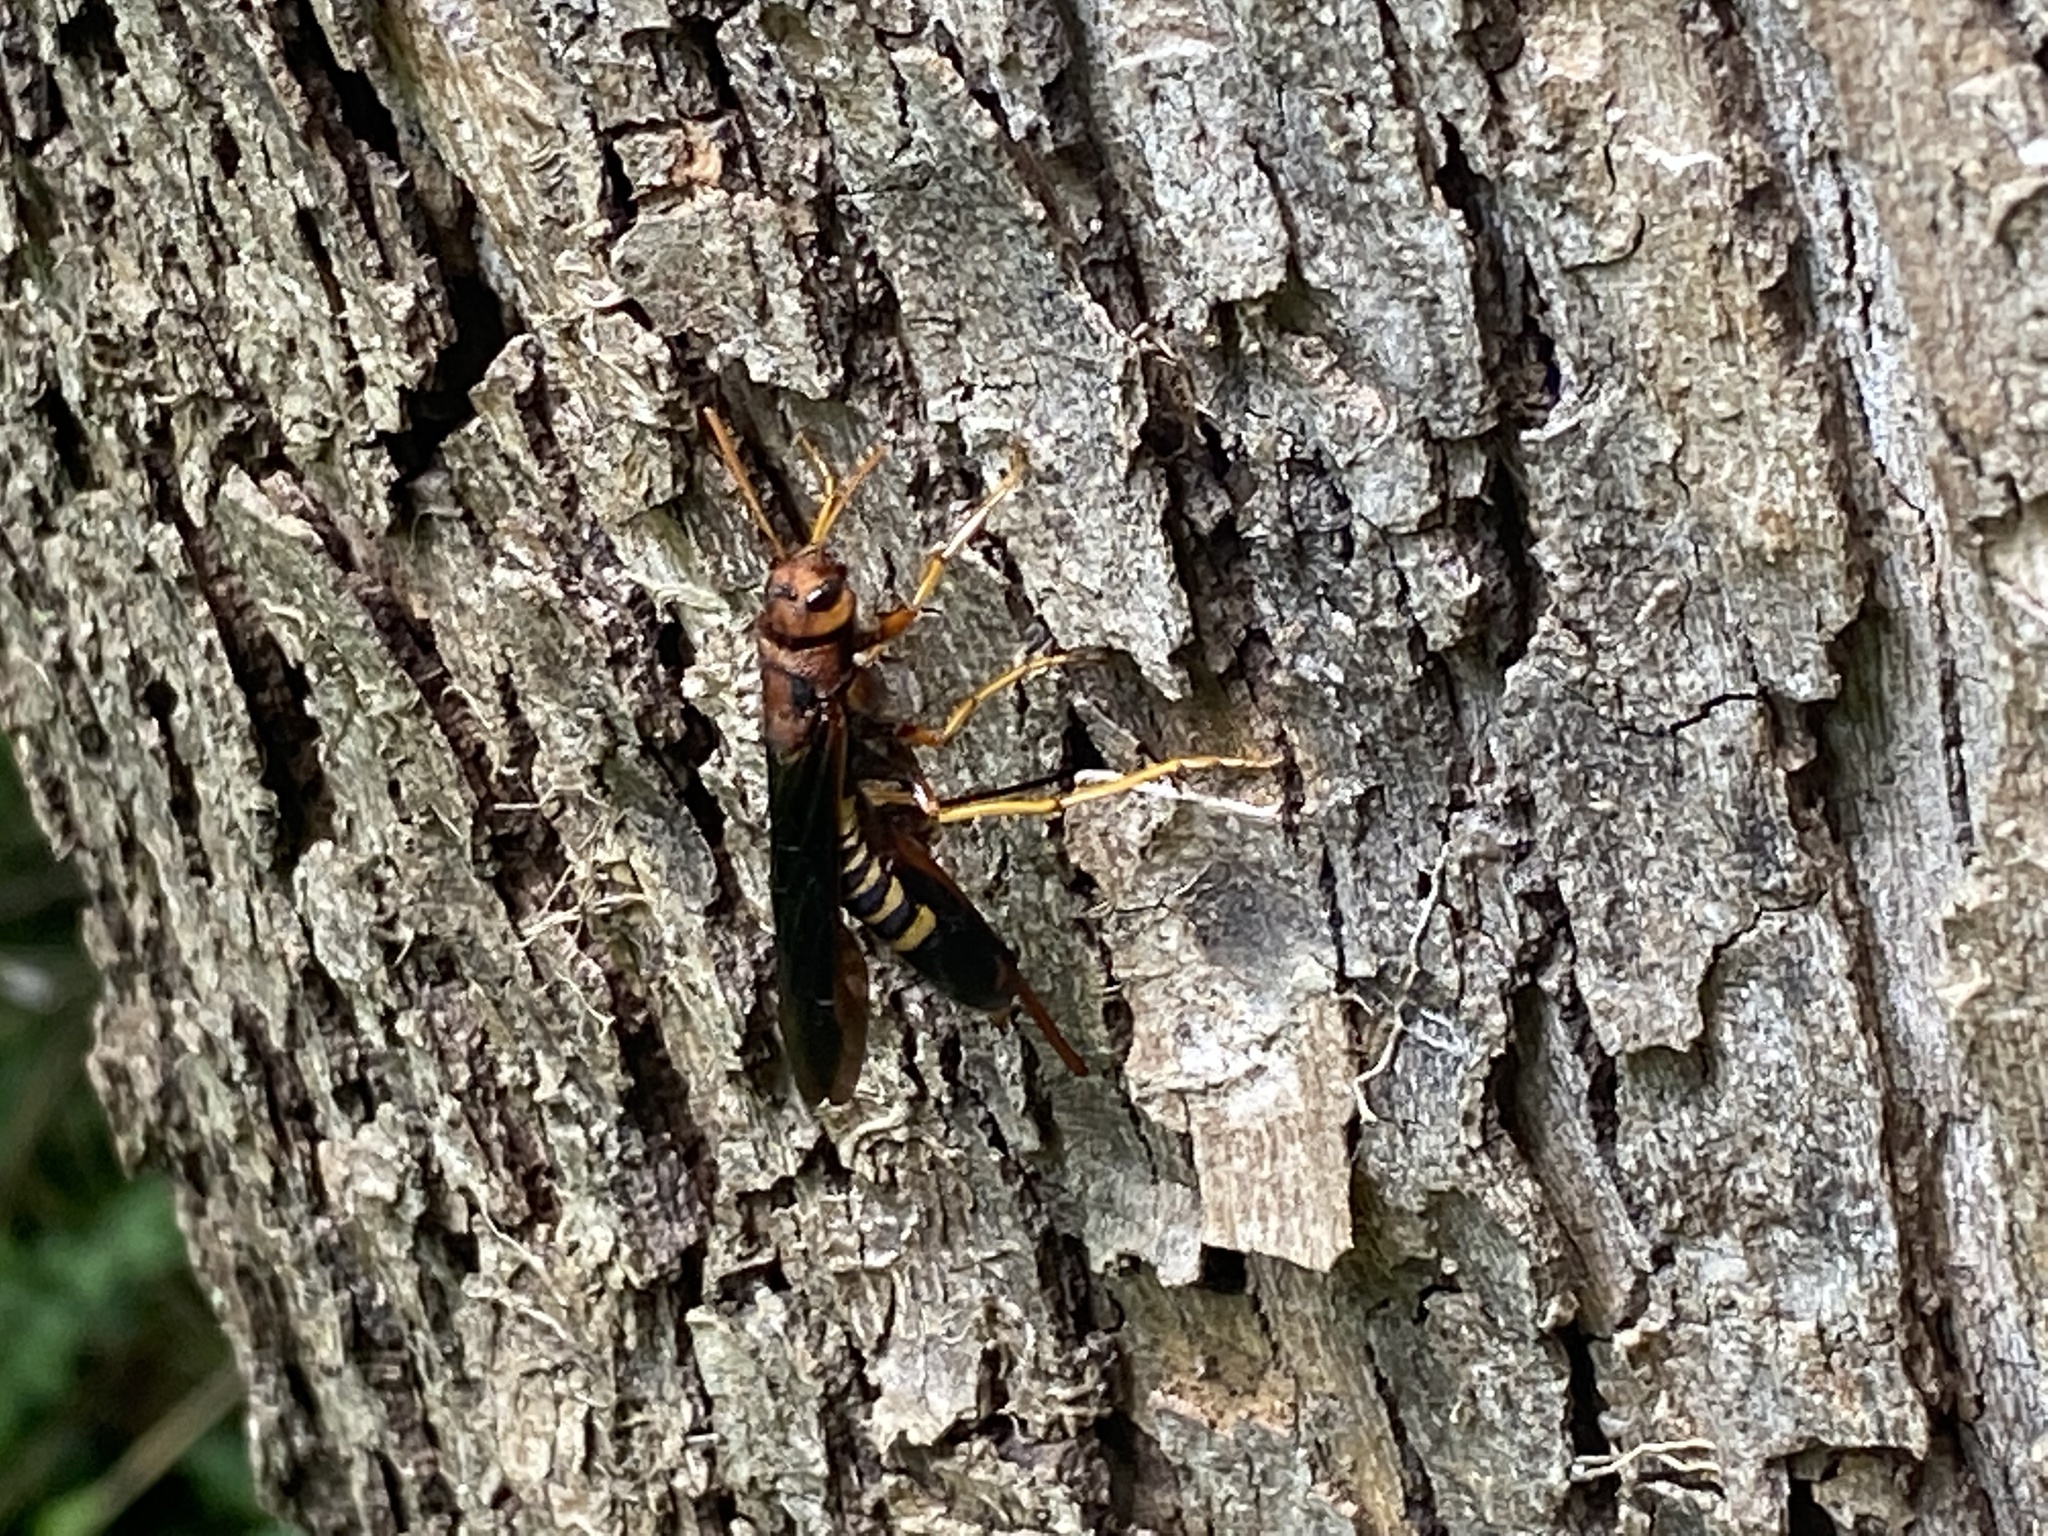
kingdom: Animalia
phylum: Arthropoda
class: Insecta
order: Hymenoptera
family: Siricidae
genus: Tremex
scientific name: Tremex columba
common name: Wasp
